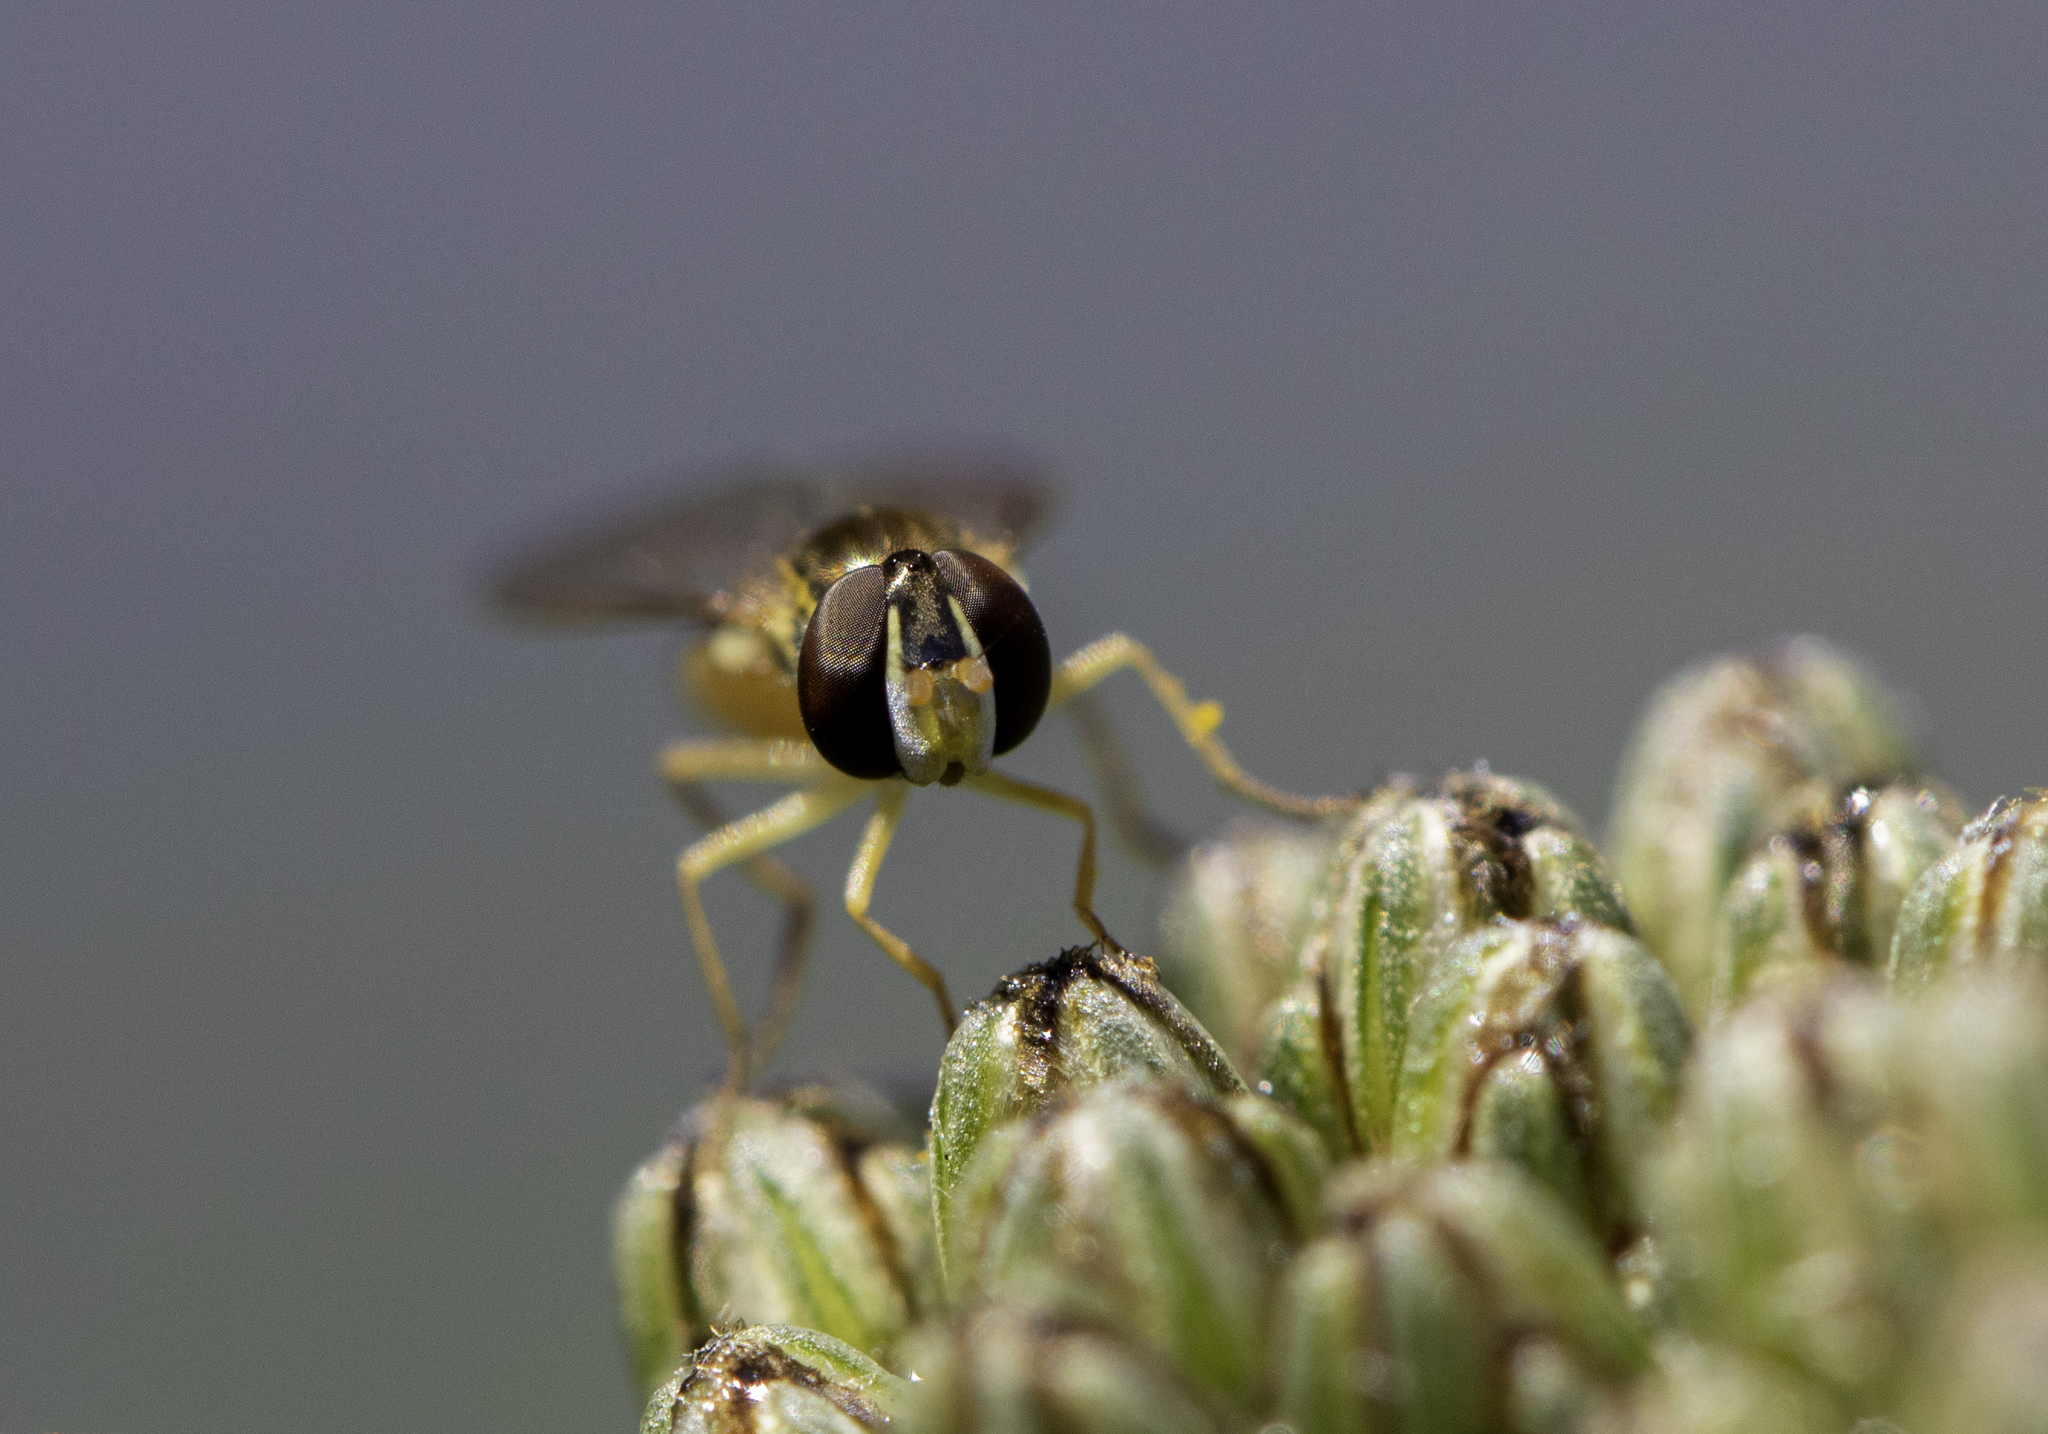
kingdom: Animalia
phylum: Arthropoda
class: Insecta
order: Diptera
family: Syrphidae
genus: Toxomerus
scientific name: Toxomerus marginatus
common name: Syrphid fly
